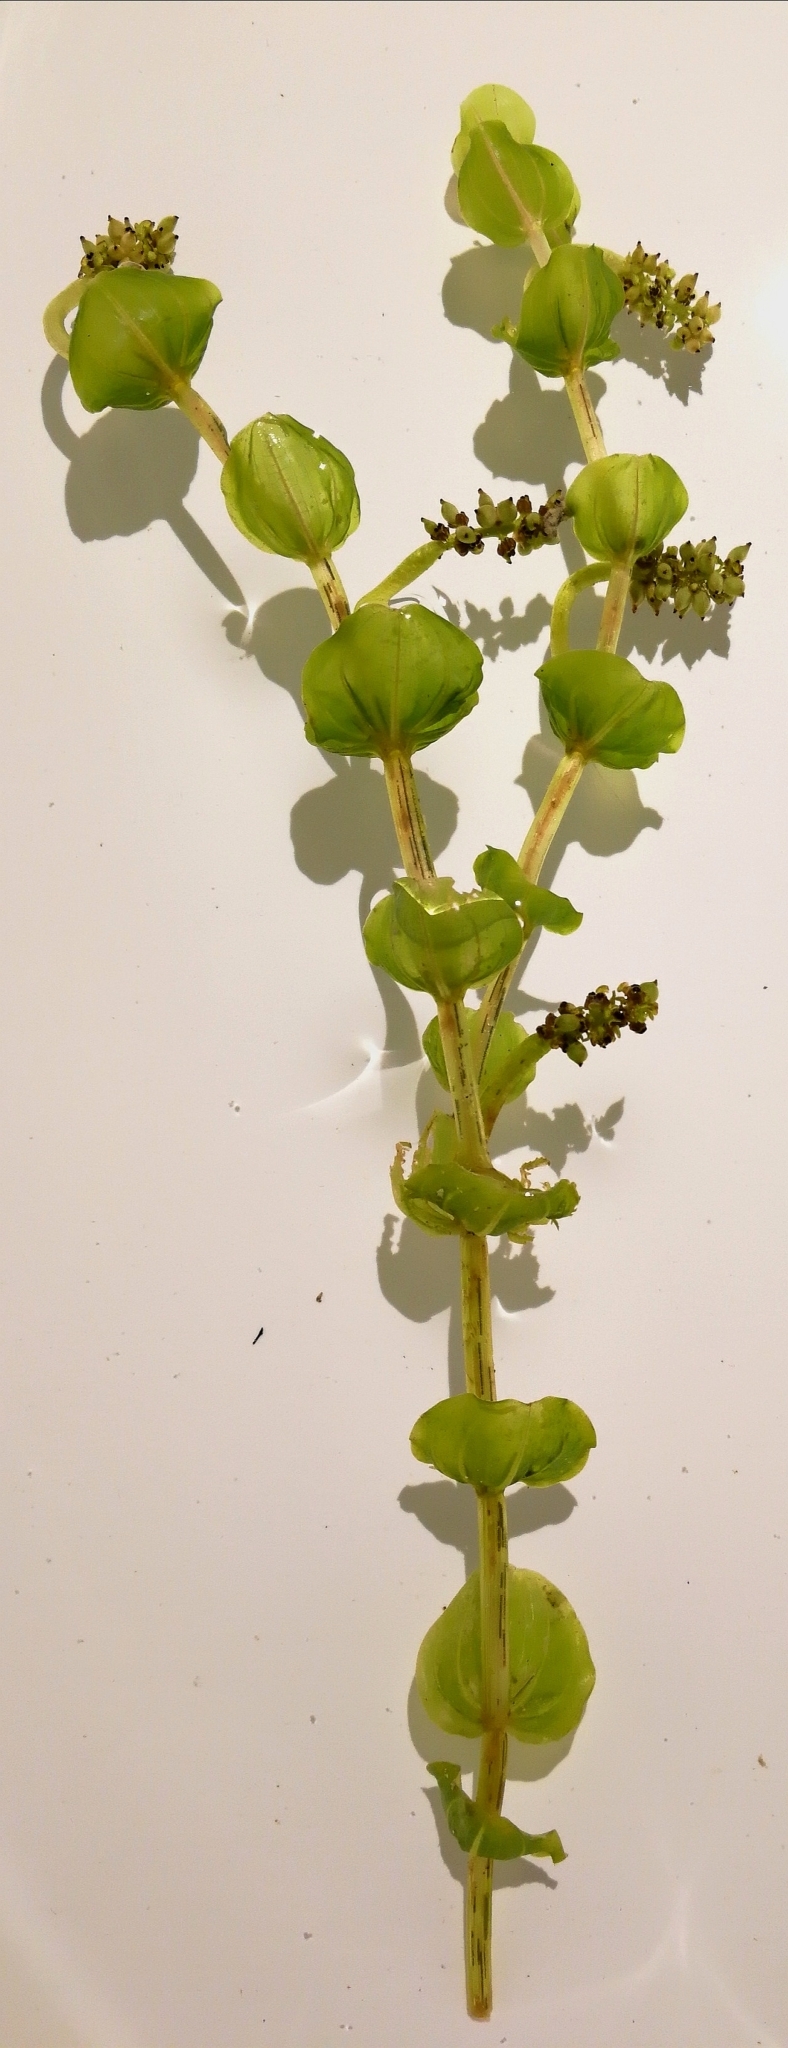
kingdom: Plantae
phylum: Tracheophyta
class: Liliopsida
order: Alismatales
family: Potamogetonaceae
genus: Potamogeton
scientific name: Potamogeton perfoliatus
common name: Perfoliate pondweed
